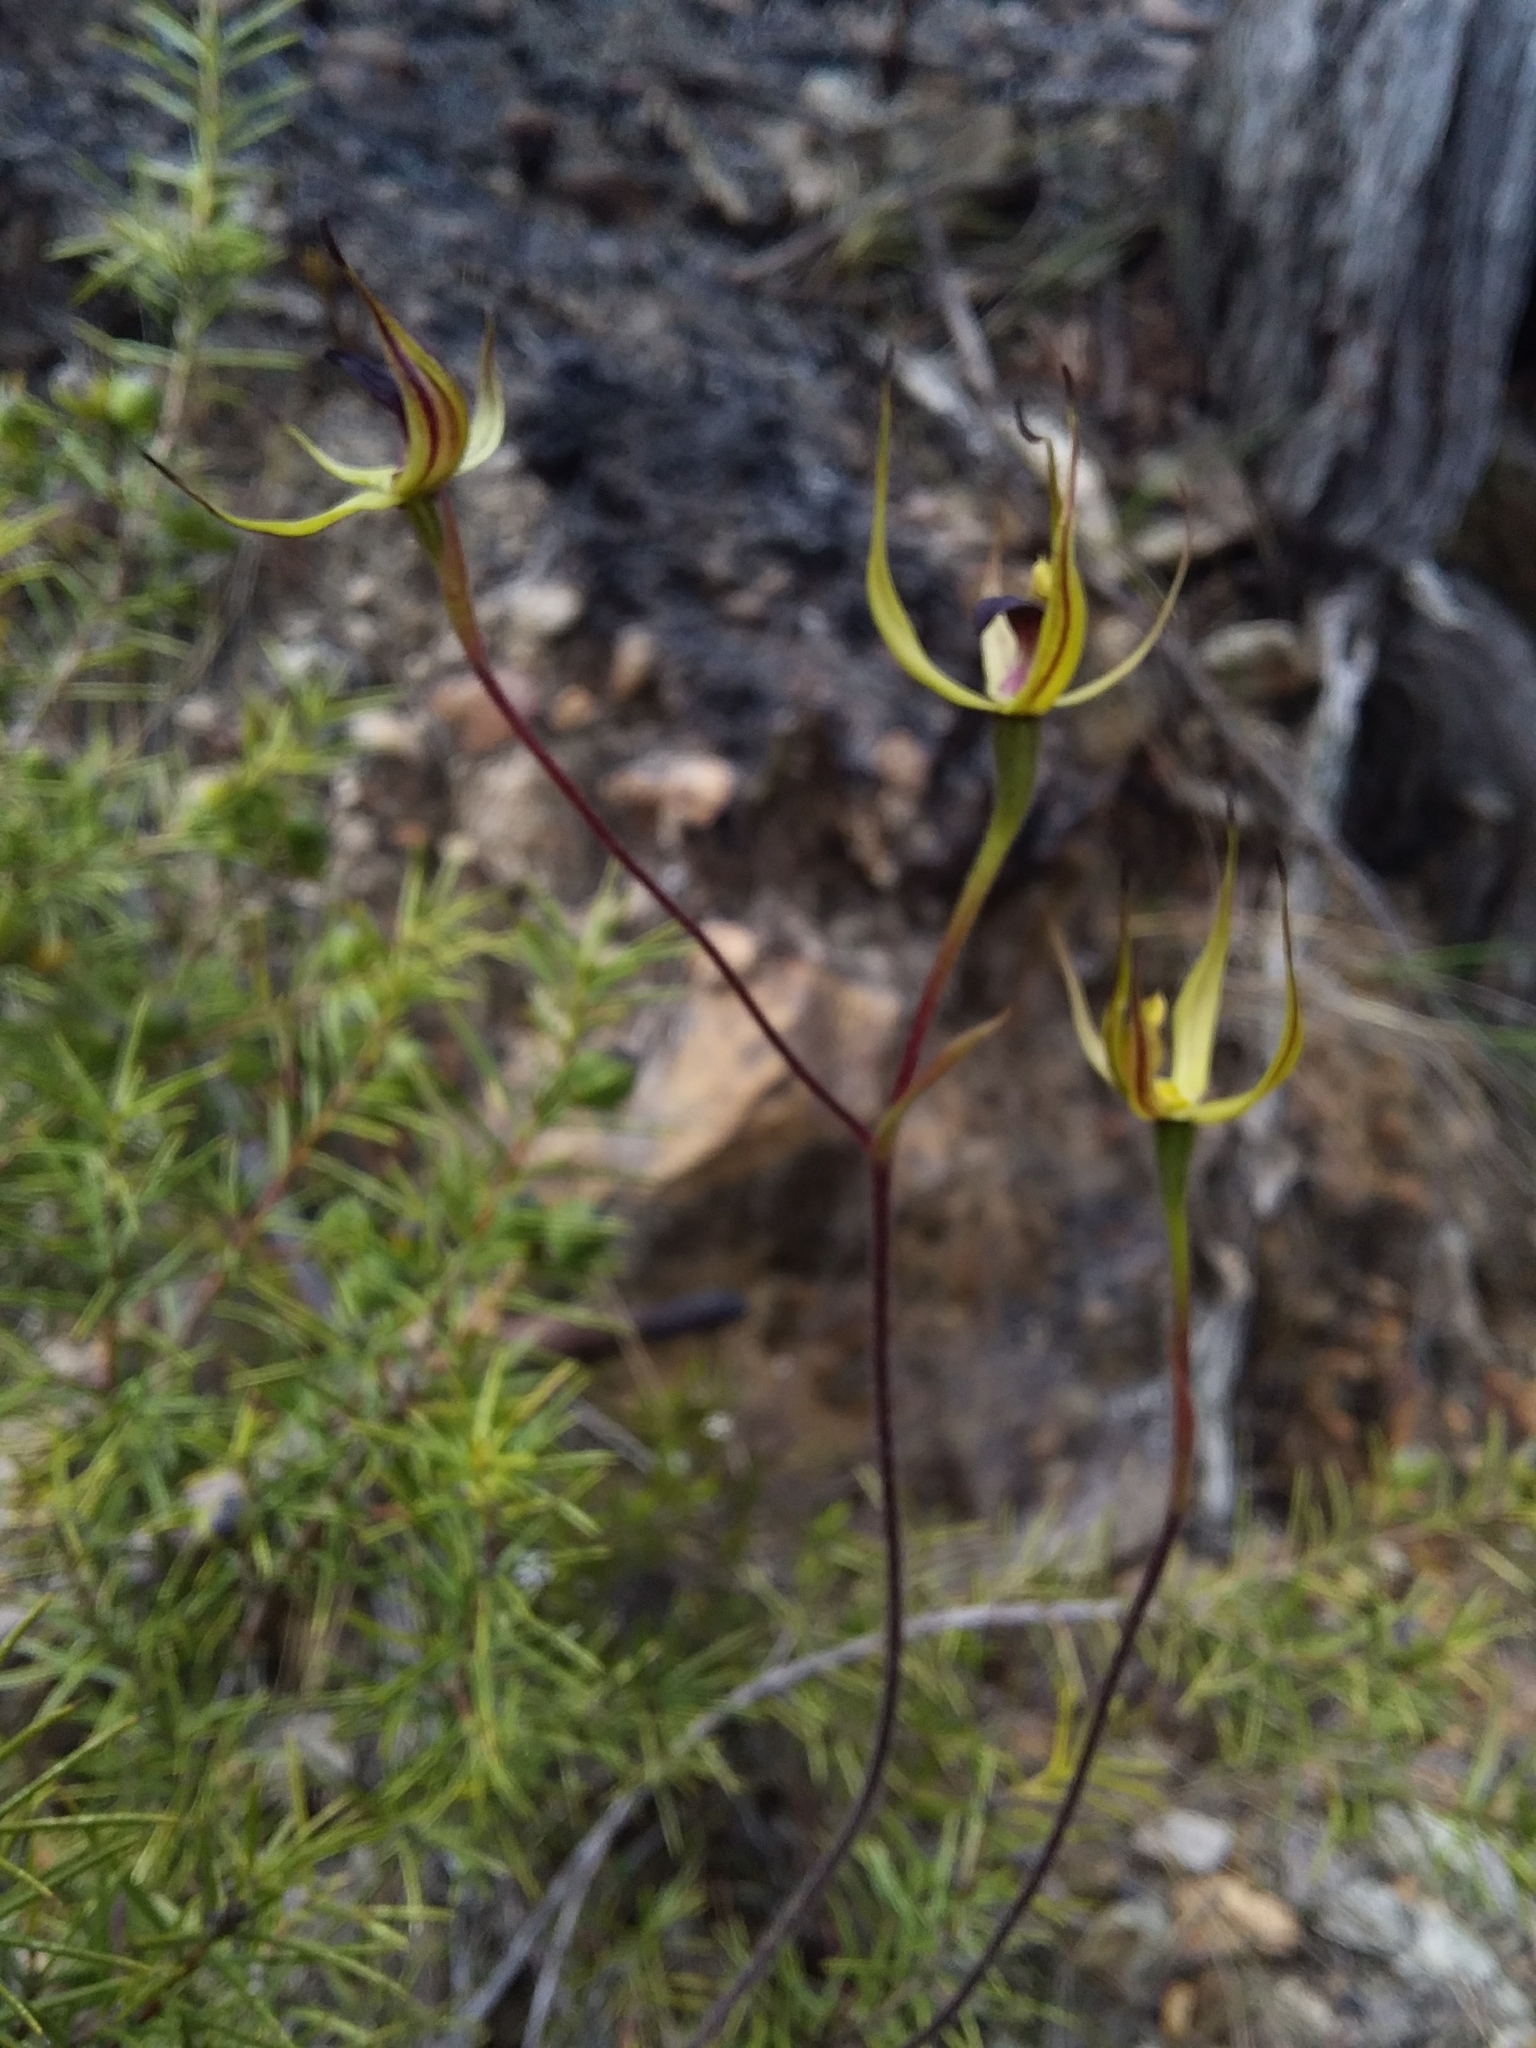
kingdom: Plantae
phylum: Tracheophyta
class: Liliopsida
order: Asparagales
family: Orchidaceae
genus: Caladenia
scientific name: Caladenia leptochila
